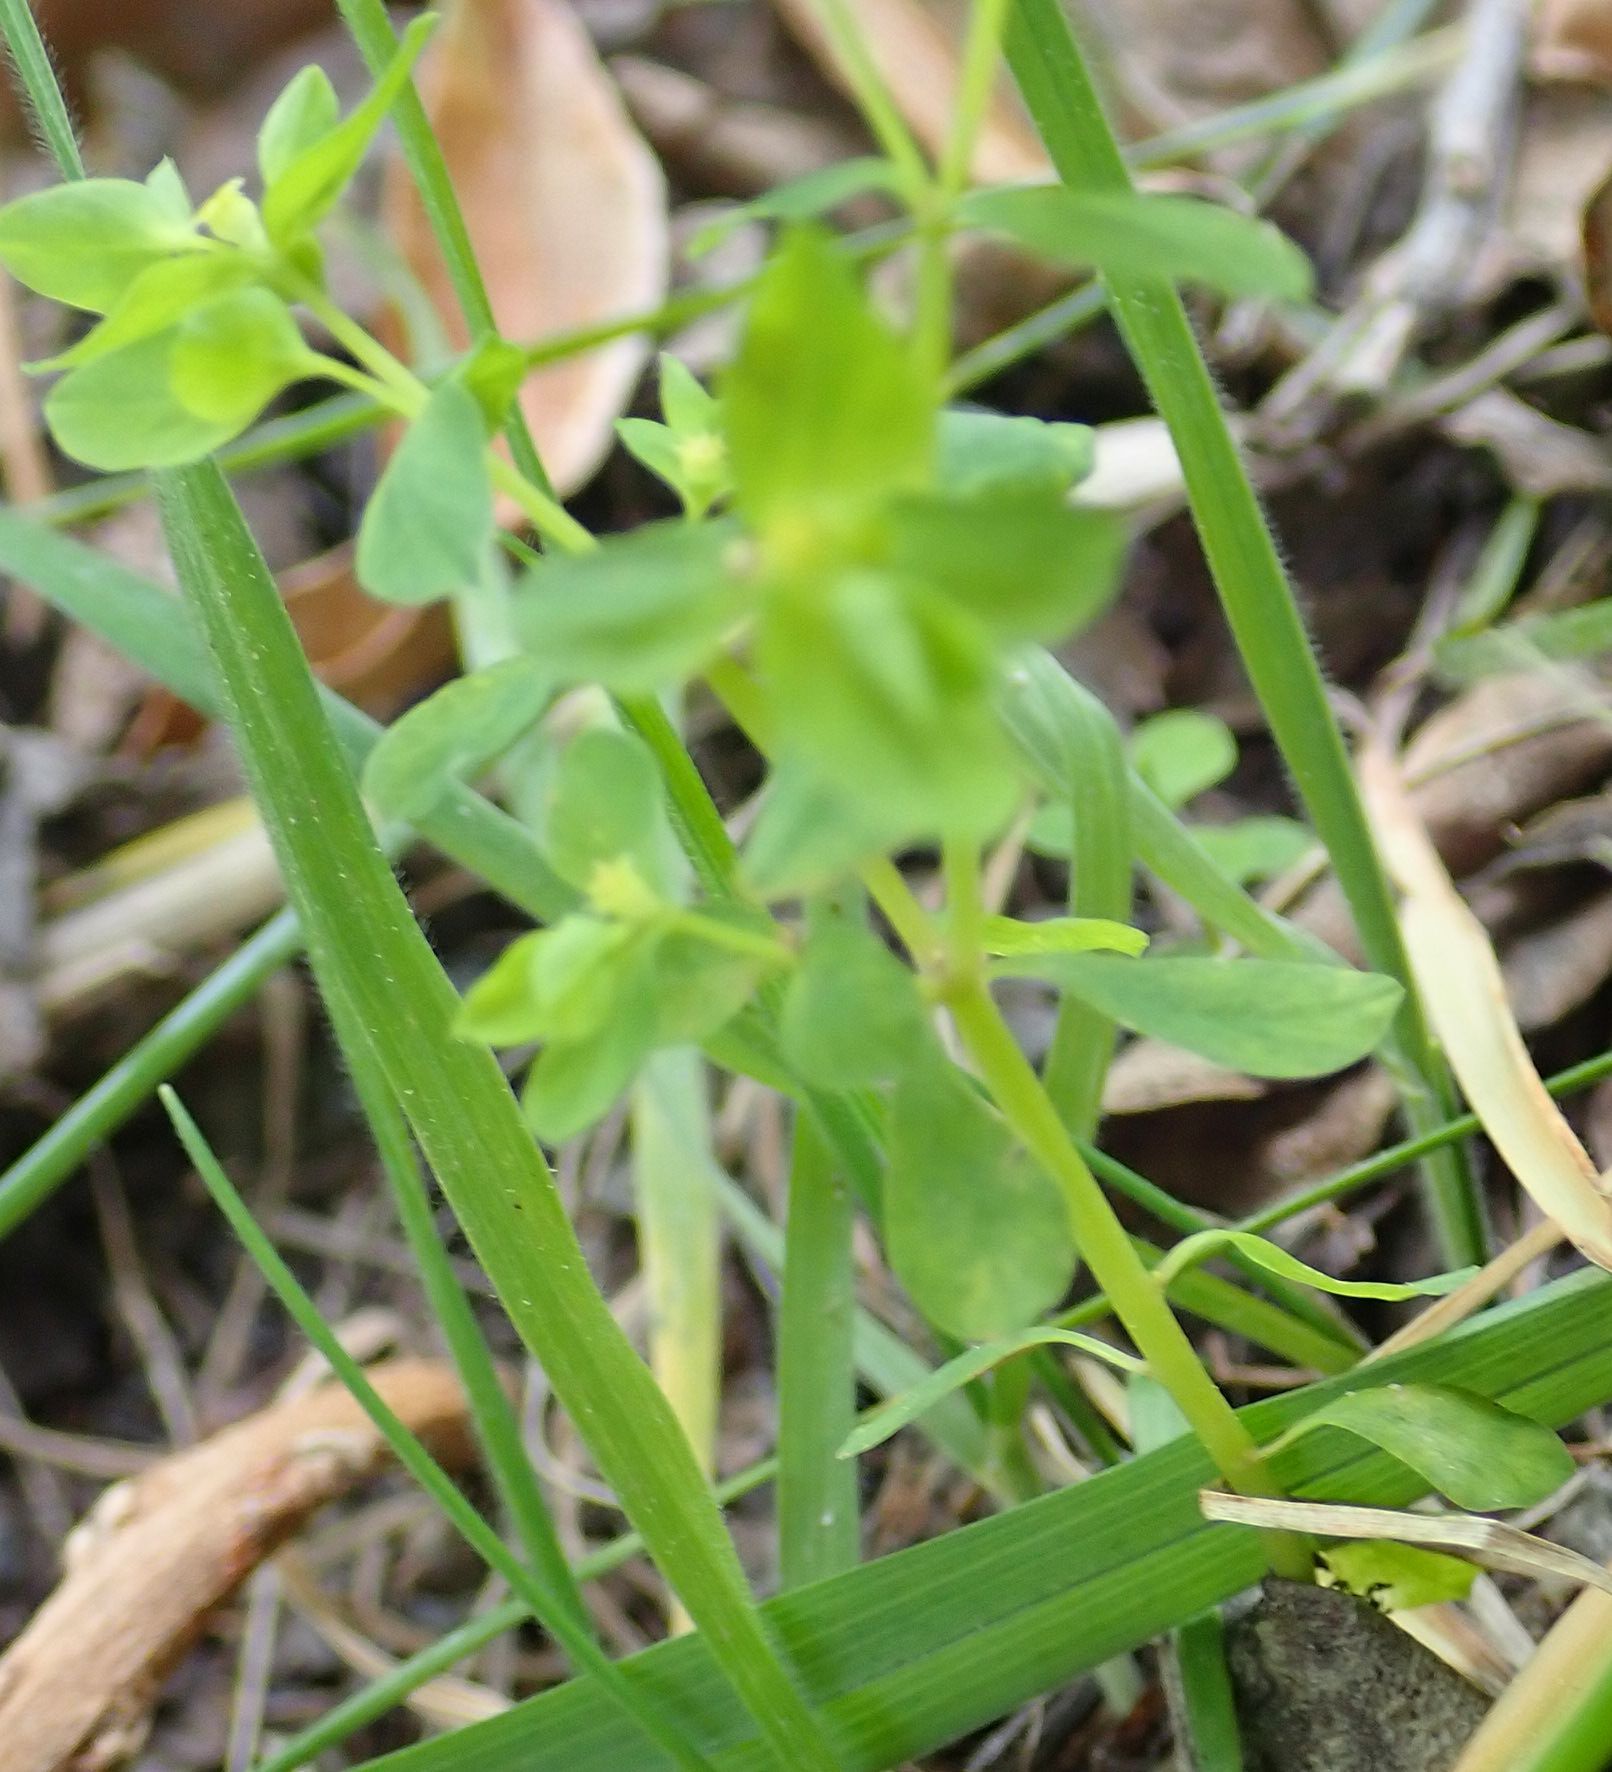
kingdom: Plantae
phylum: Tracheophyta
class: Magnoliopsida
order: Malpighiales
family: Euphorbiaceae
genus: Euphorbia
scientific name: Euphorbia peplus
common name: Petty spurge
